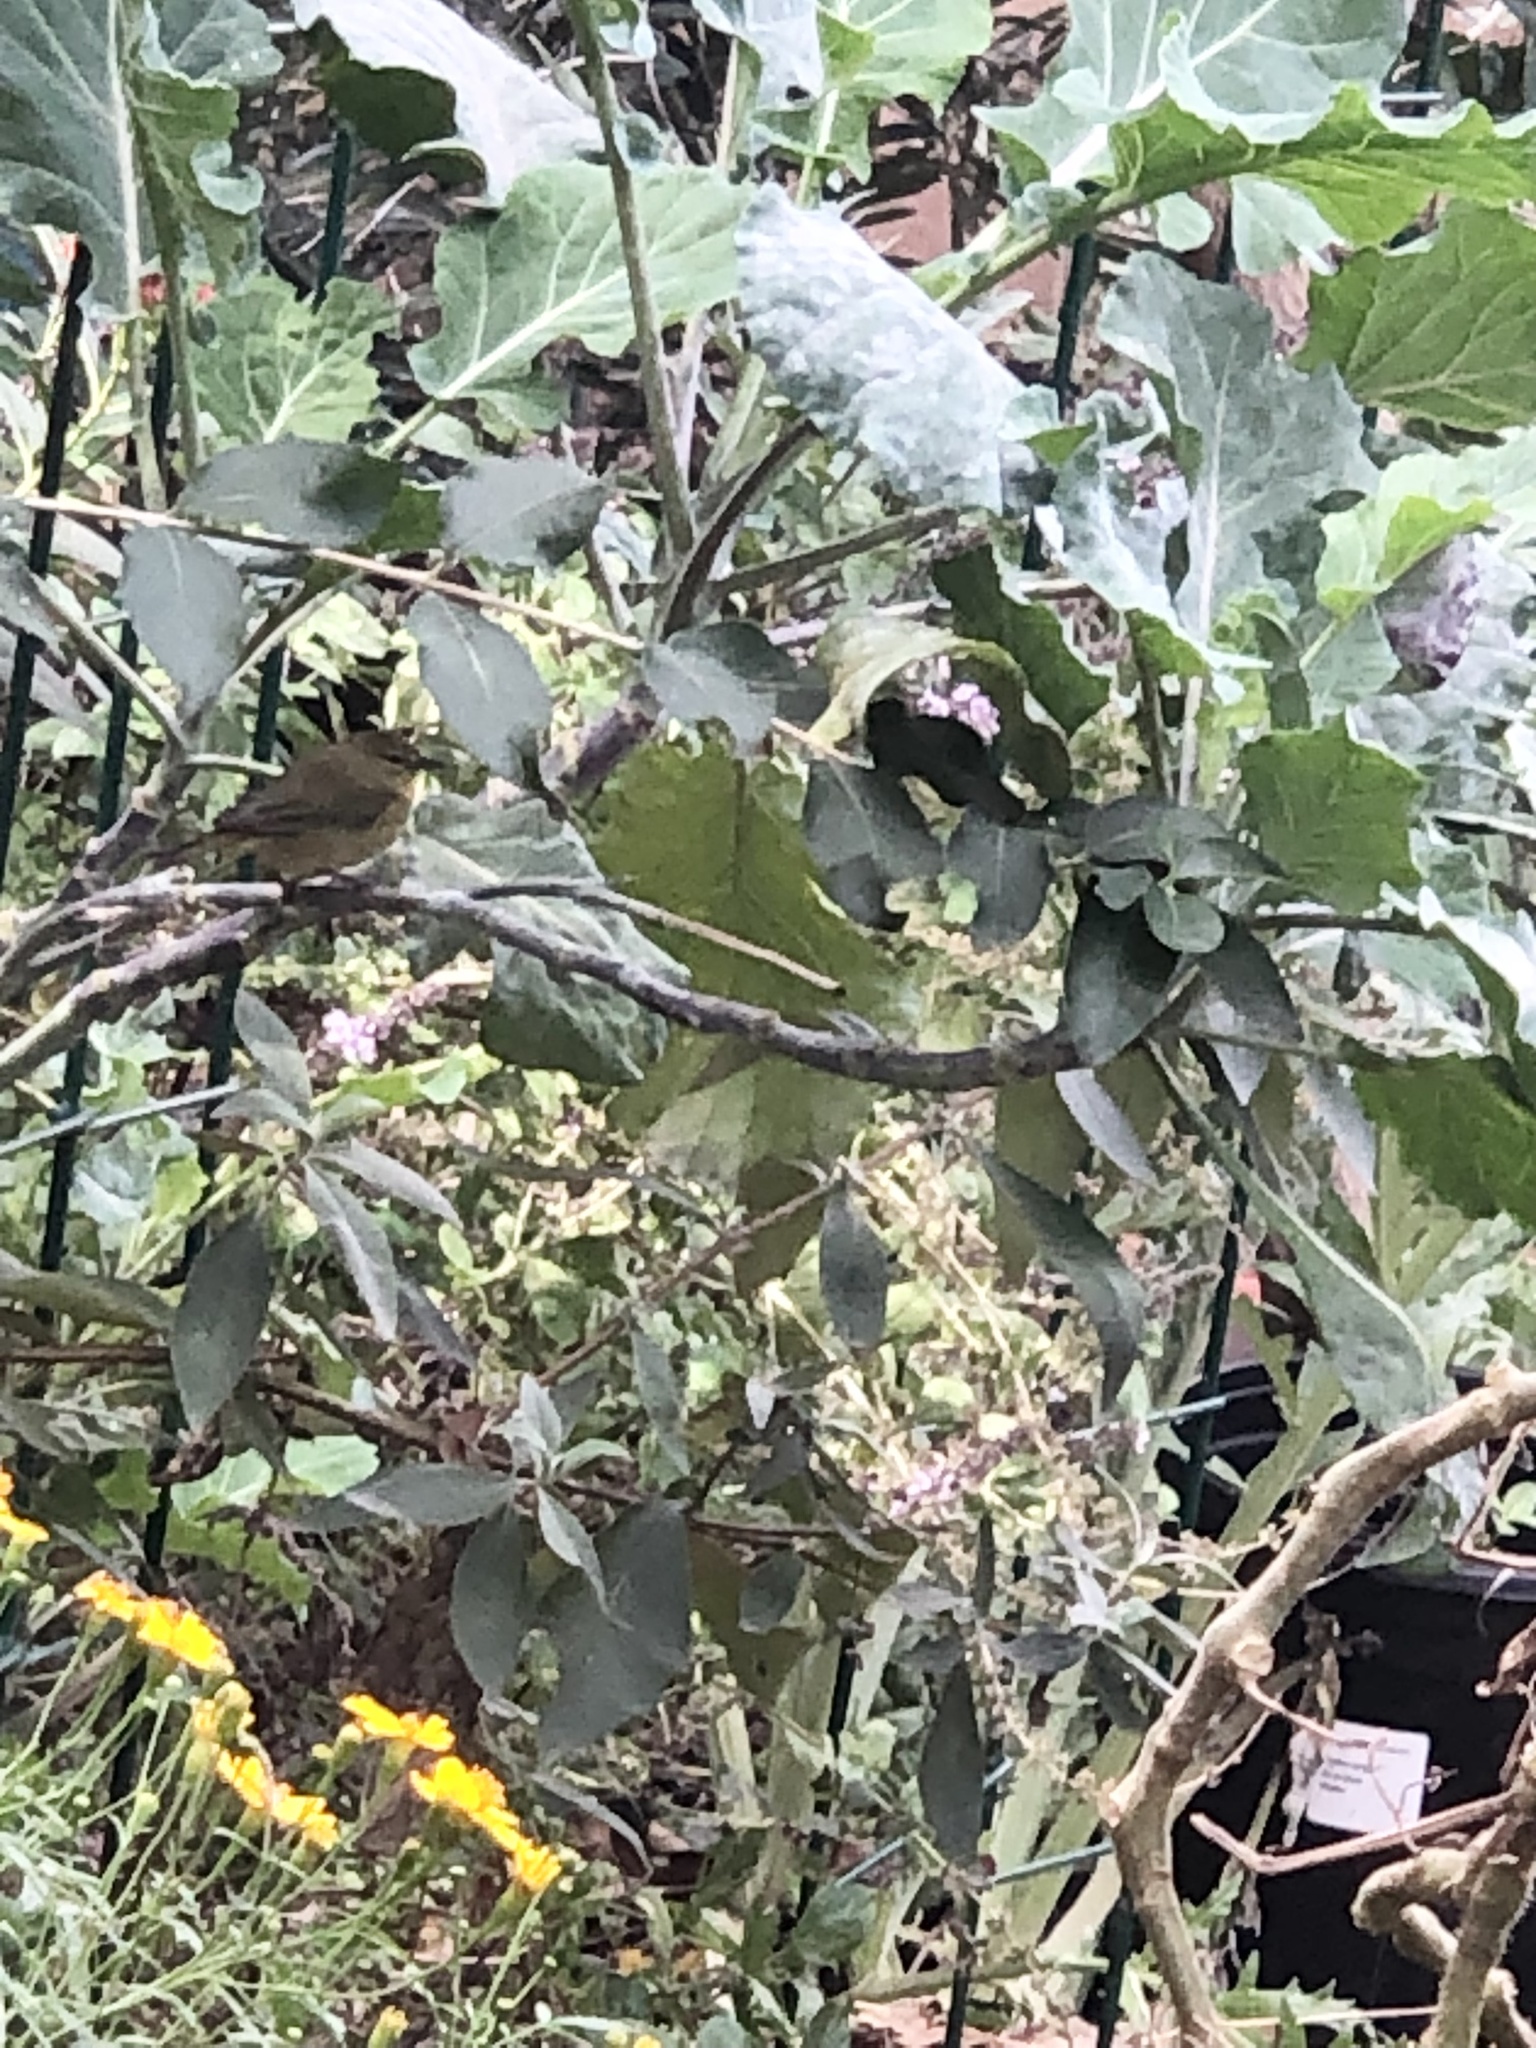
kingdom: Animalia
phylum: Chordata
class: Aves
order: Passeriformes
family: Parulidae
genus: Leiothlypis
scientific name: Leiothlypis celata
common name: Orange-crowned warbler
